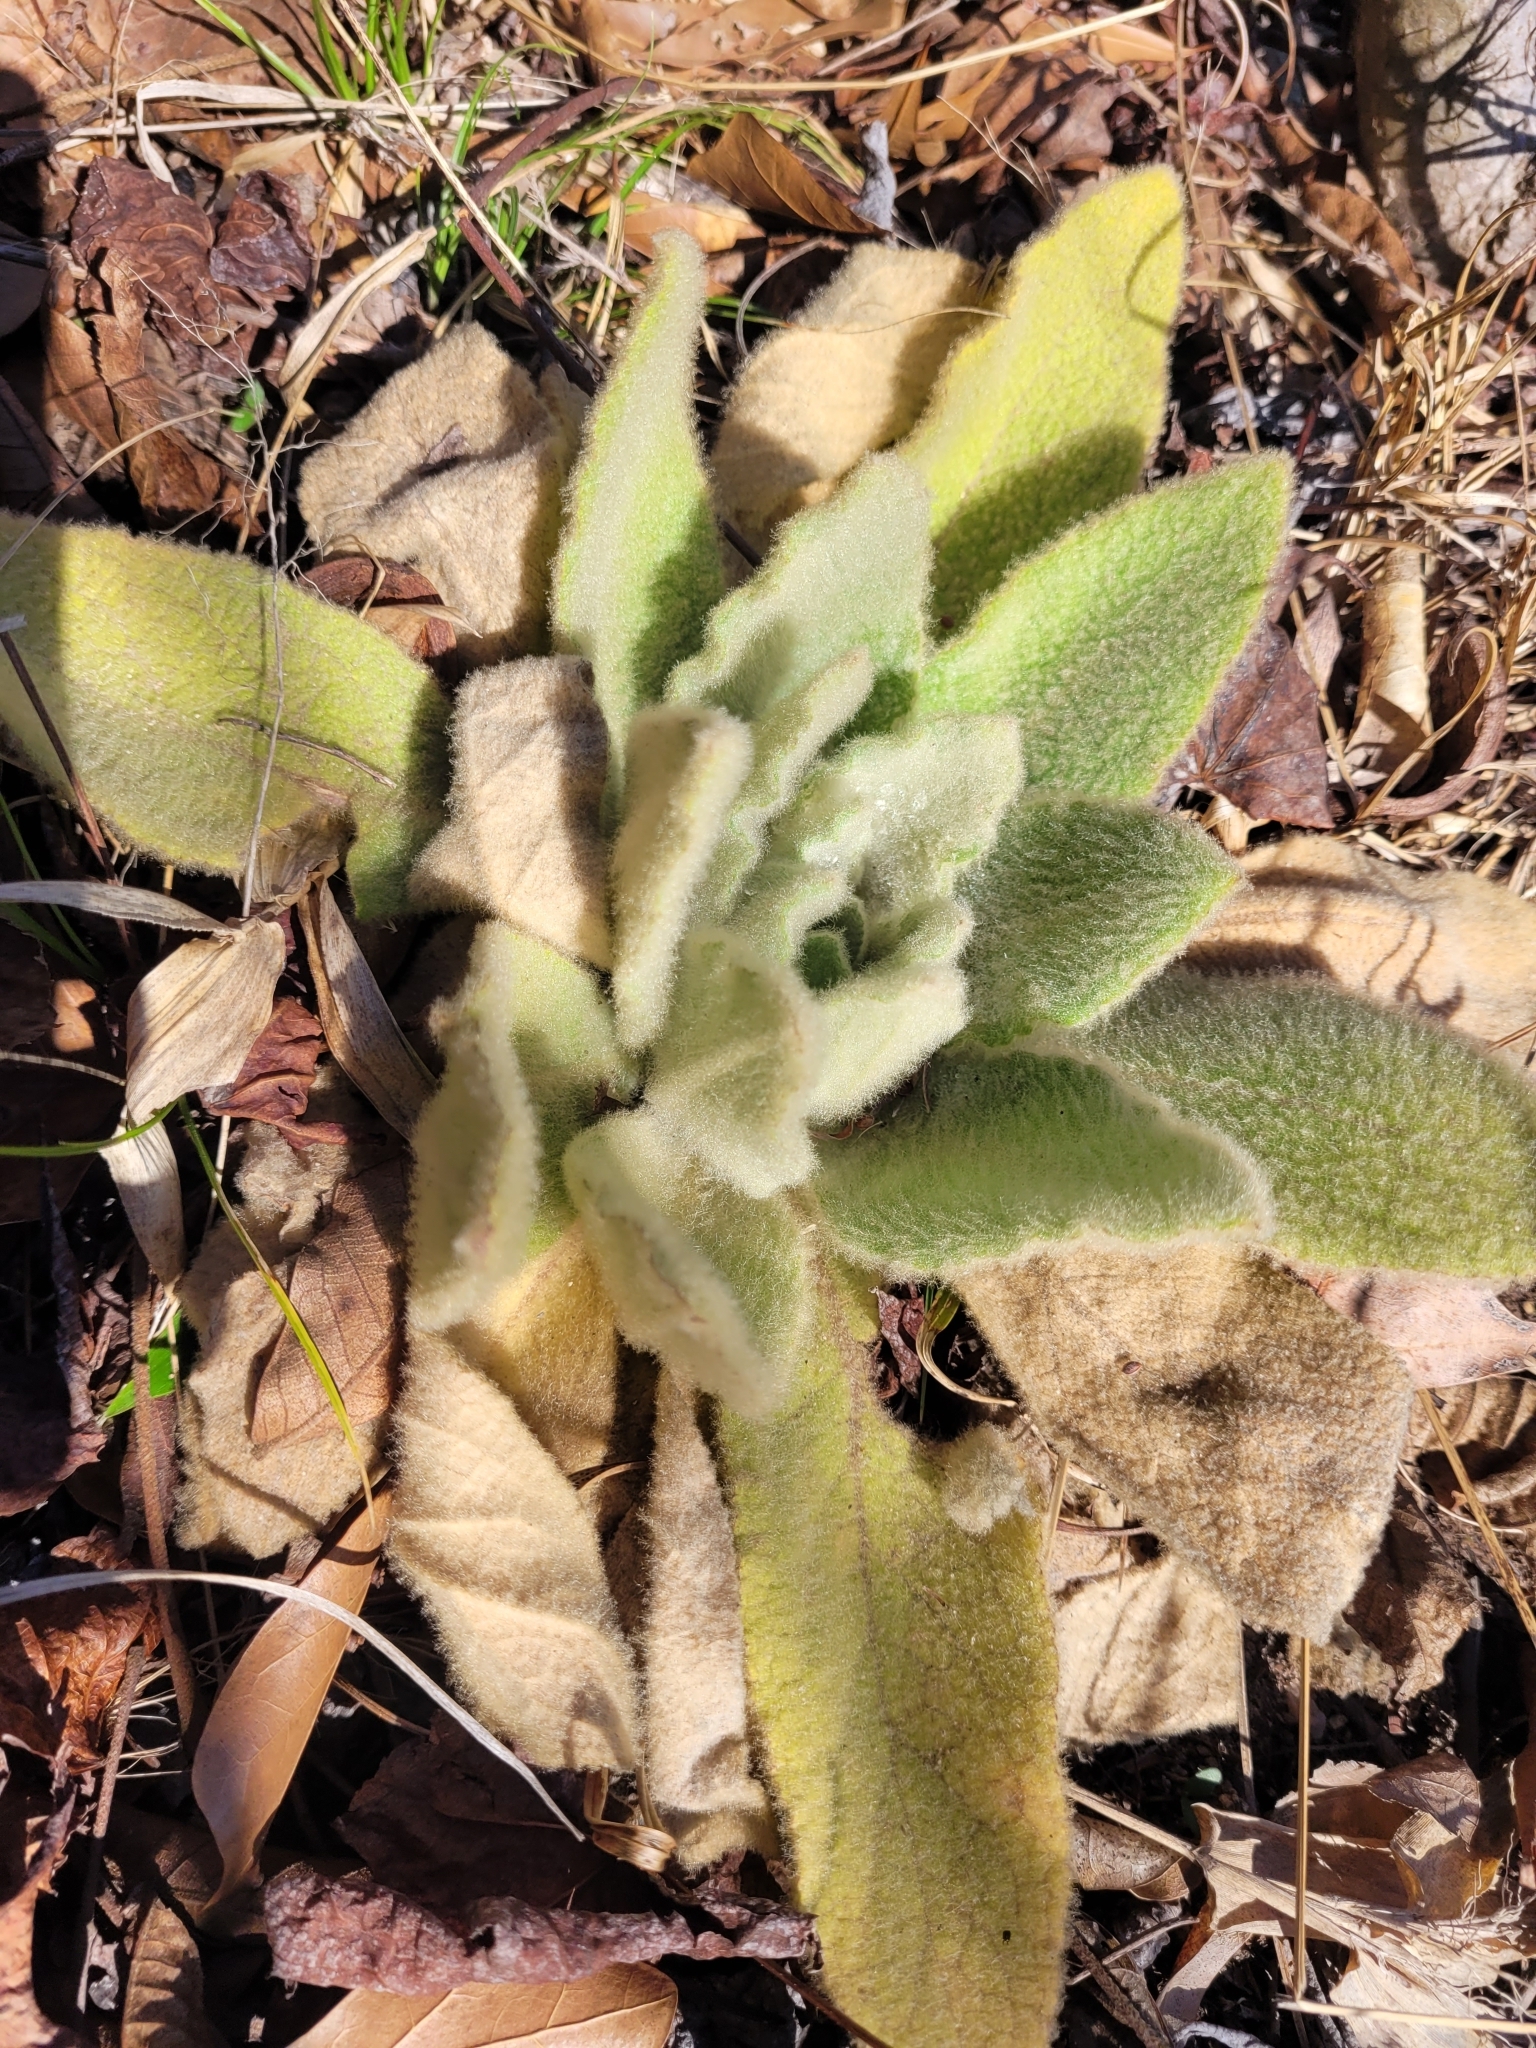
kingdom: Plantae
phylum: Tracheophyta
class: Magnoliopsida
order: Lamiales
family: Scrophulariaceae
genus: Verbascum
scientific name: Verbascum thapsus
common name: Common mullein
